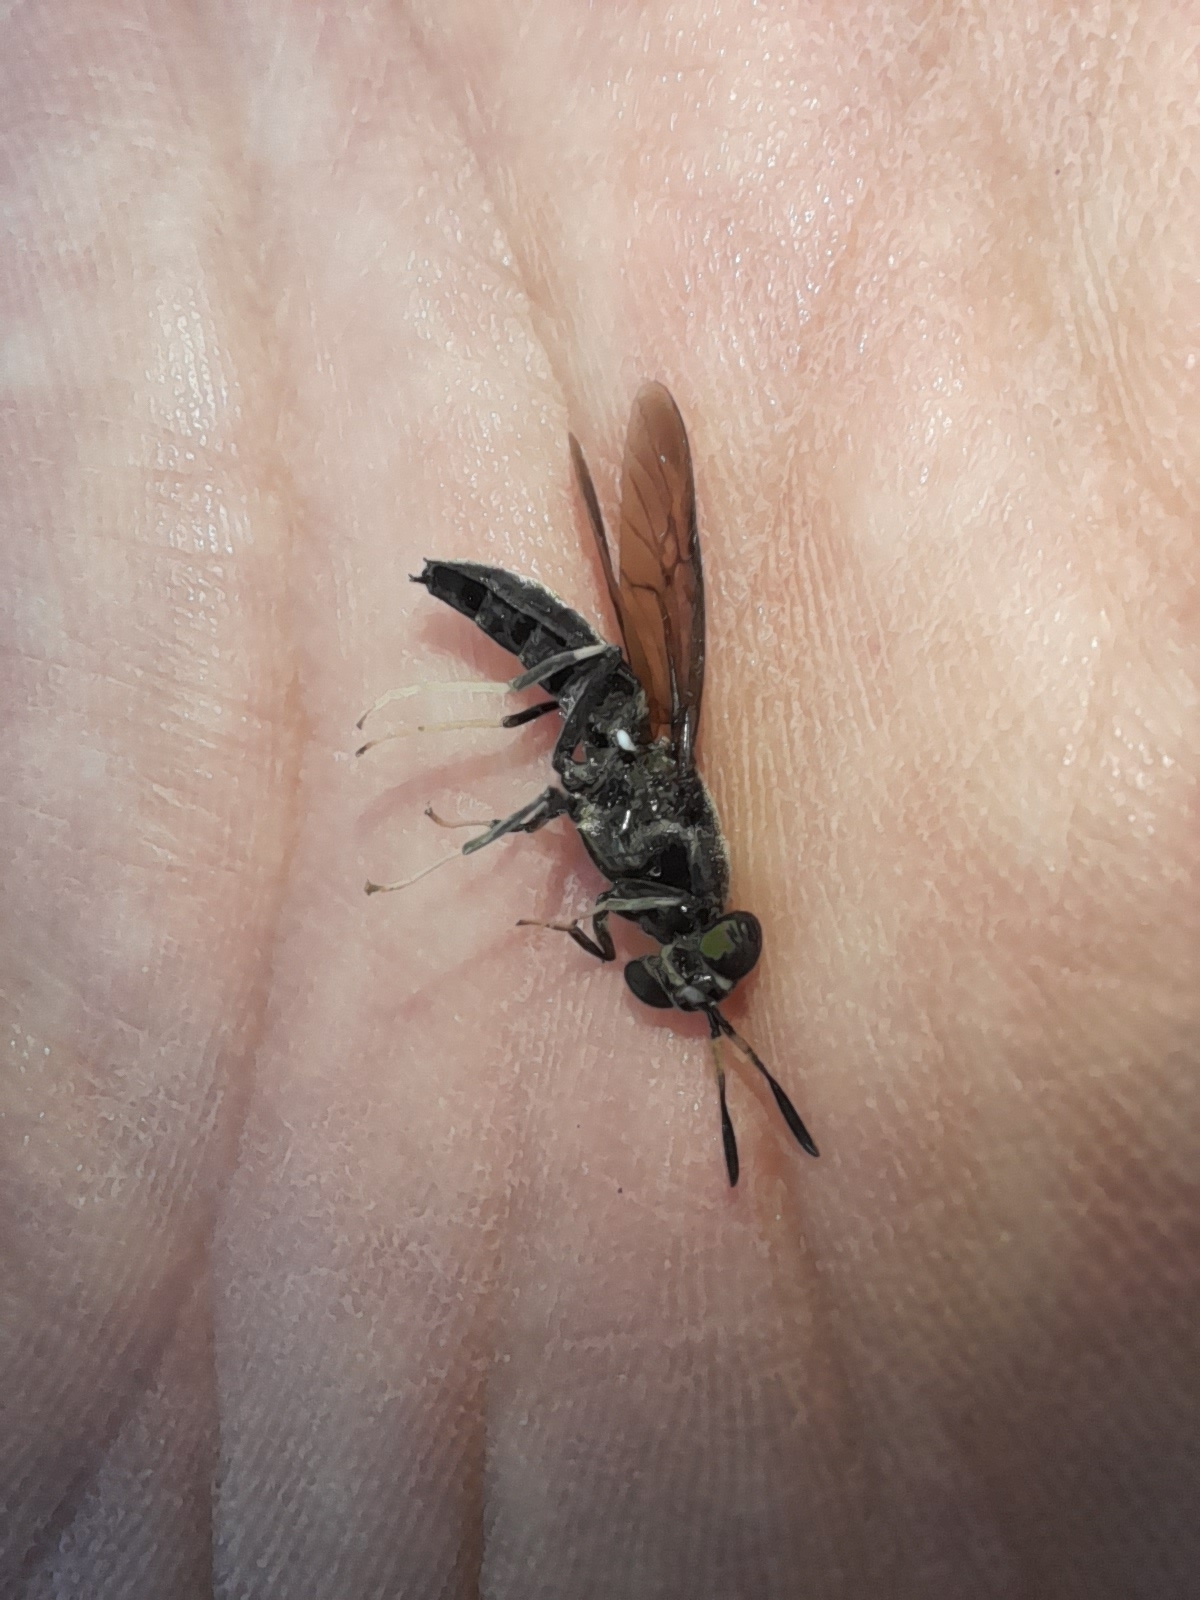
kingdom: Animalia
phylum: Arthropoda
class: Insecta
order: Diptera
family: Stratiomyidae
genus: Hermetia
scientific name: Hermetia illucens
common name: Black soldier fly
